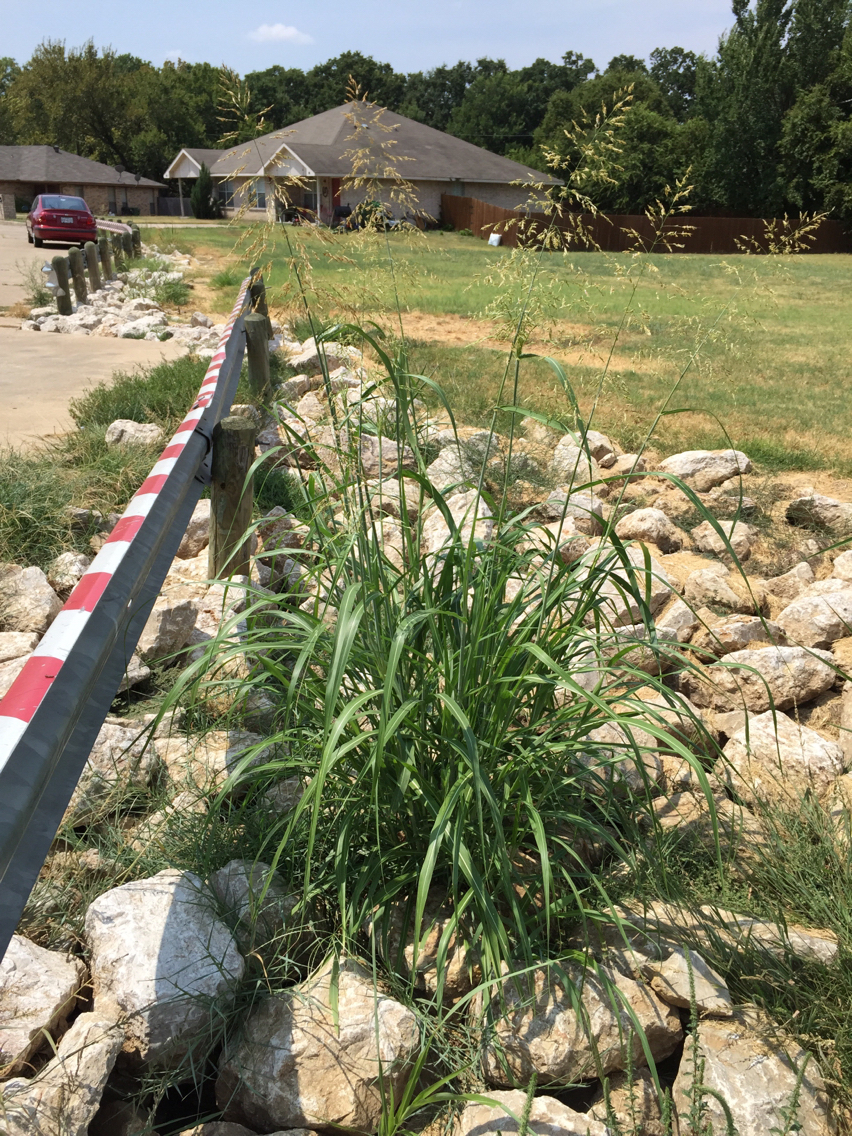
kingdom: Plantae
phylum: Tracheophyta
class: Liliopsida
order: Poales
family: Poaceae
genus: Sorghum
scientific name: Sorghum halepense
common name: Johnson-grass
